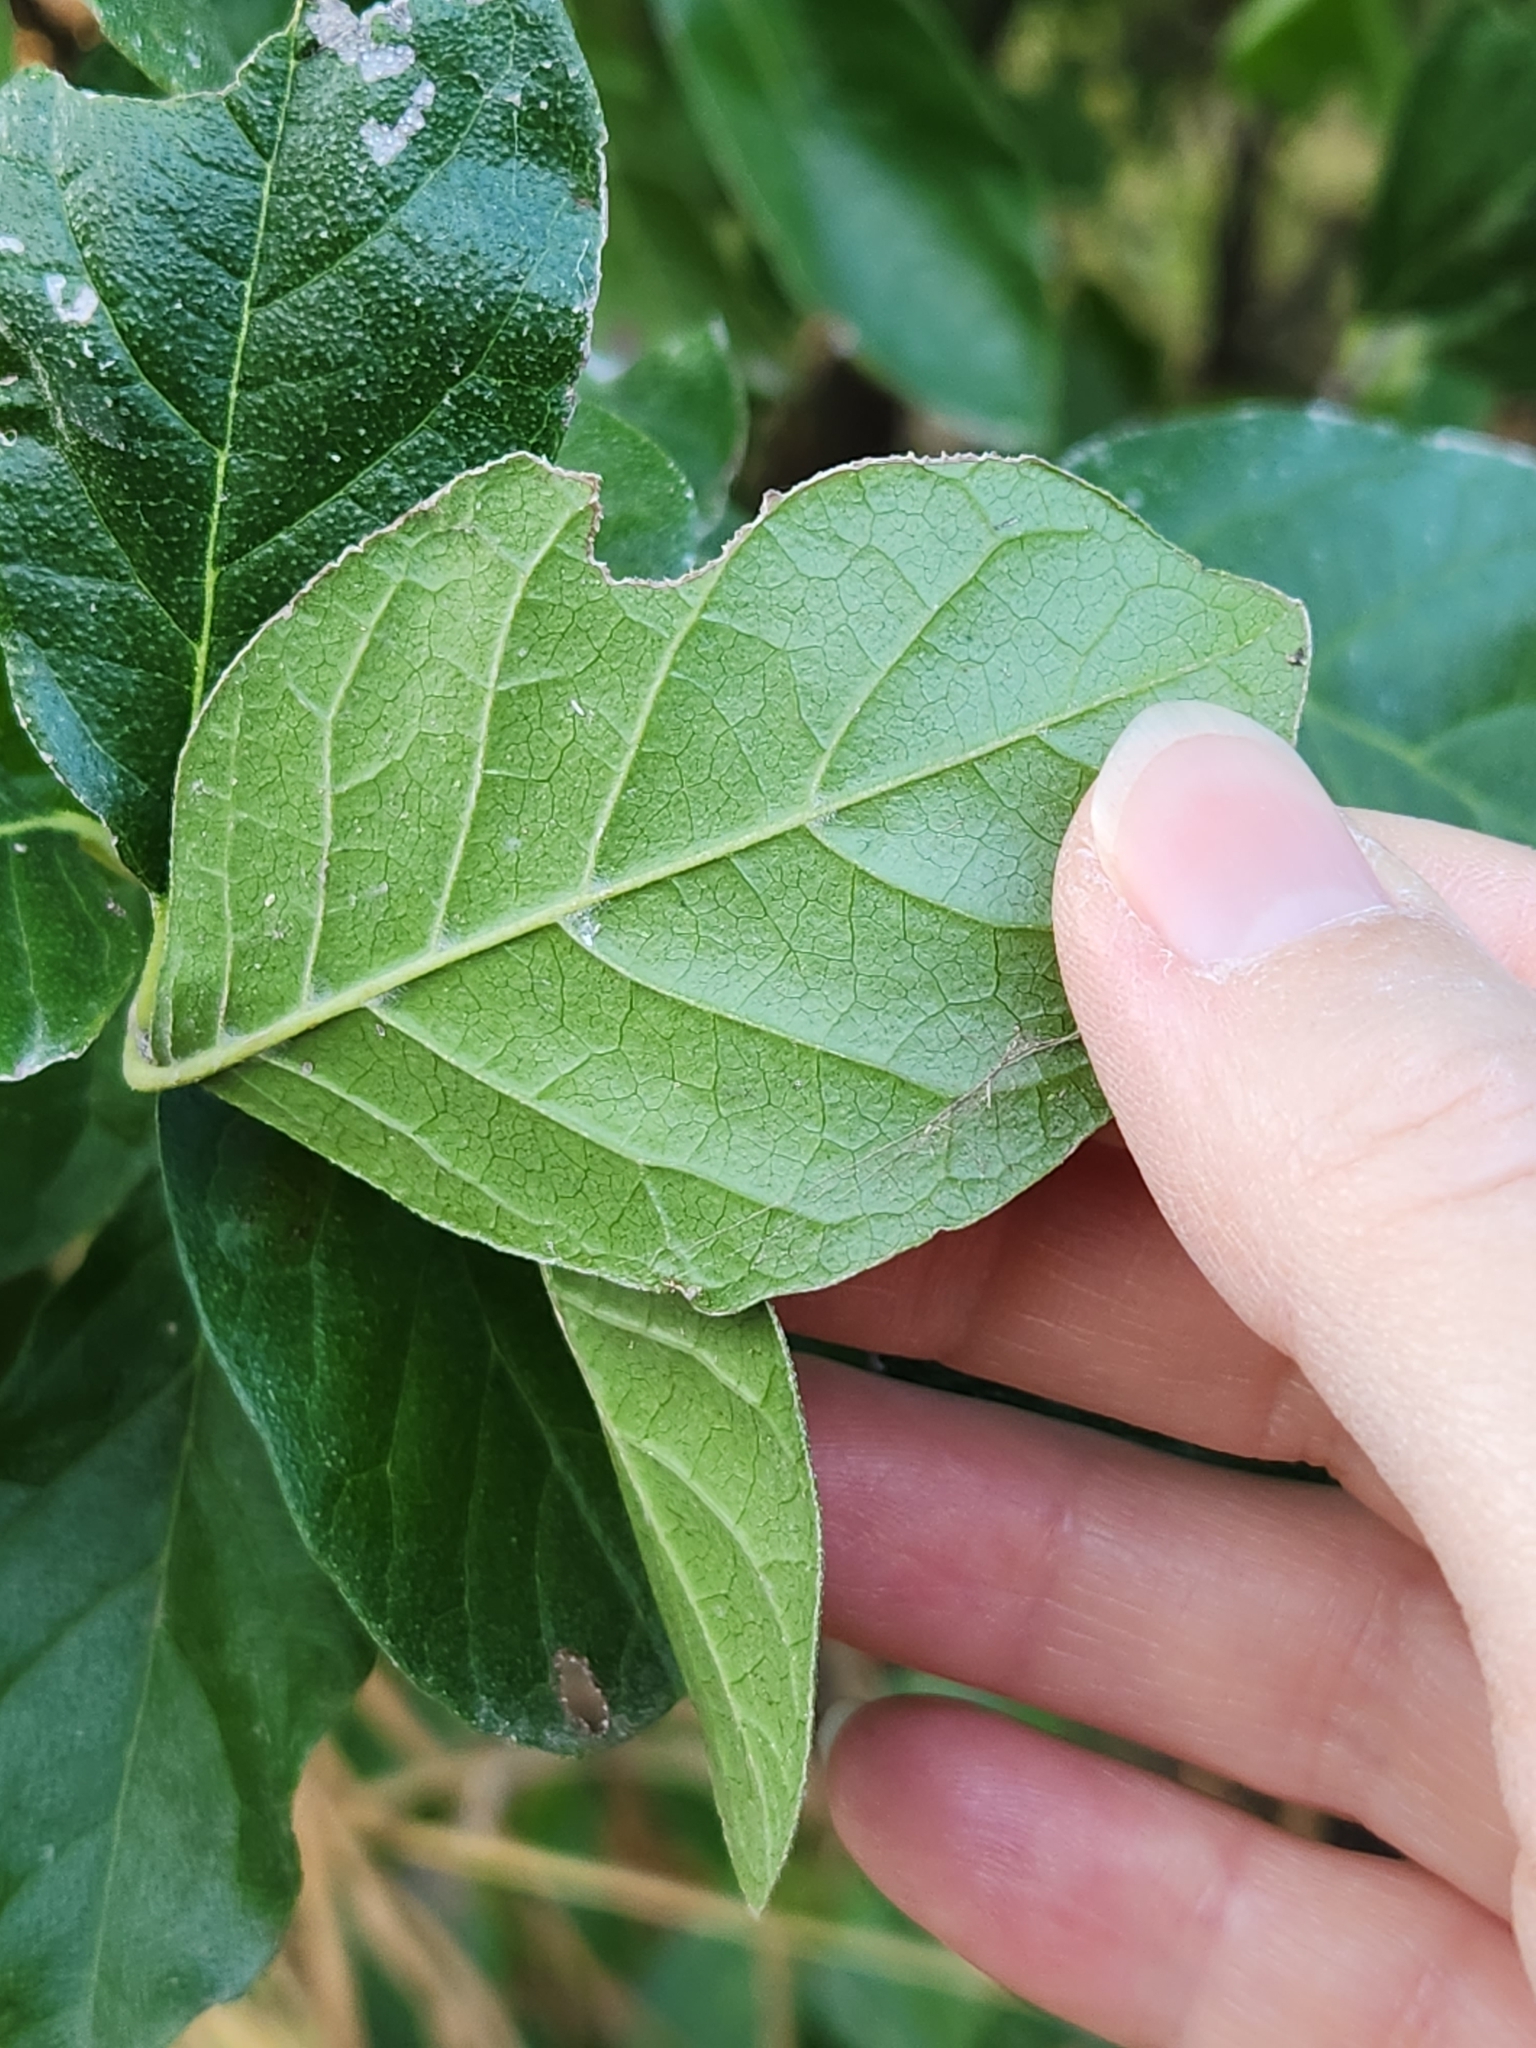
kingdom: Plantae
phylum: Tracheophyta
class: Magnoliopsida
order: Boraginales
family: Ehretiaceae
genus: Ehretia
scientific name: Ehretia anacua
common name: Sugarberry
